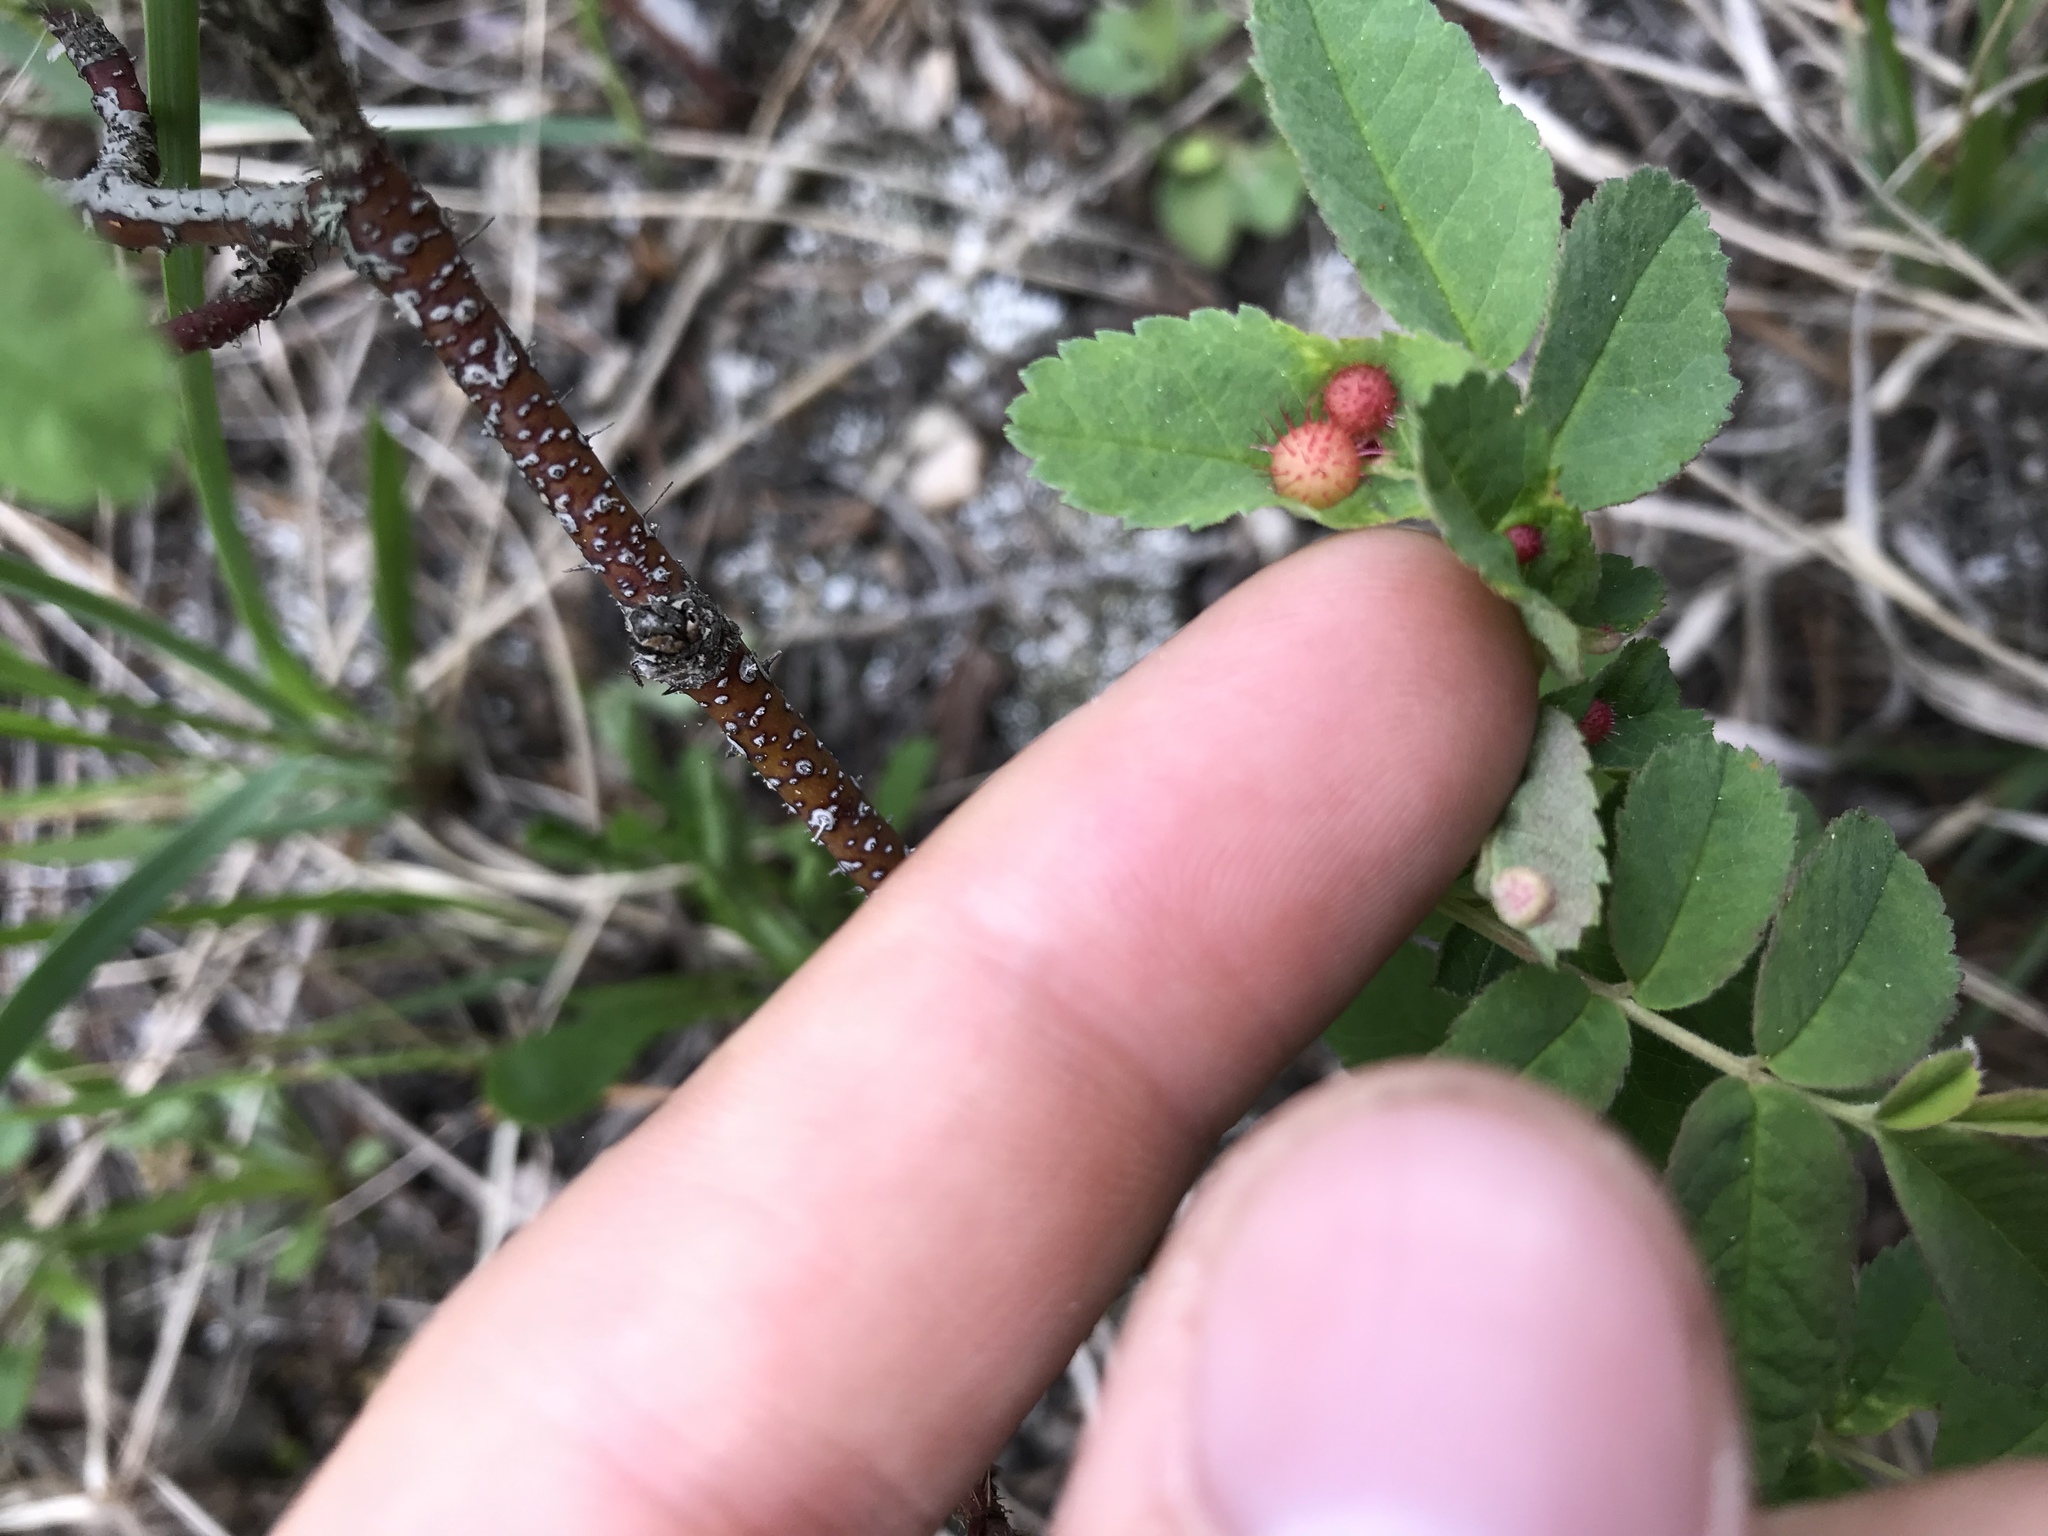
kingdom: Animalia
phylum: Arthropoda
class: Insecta
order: Hymenoptera
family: Cynipidae
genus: Diplolepis
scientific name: Diplolepis polita
